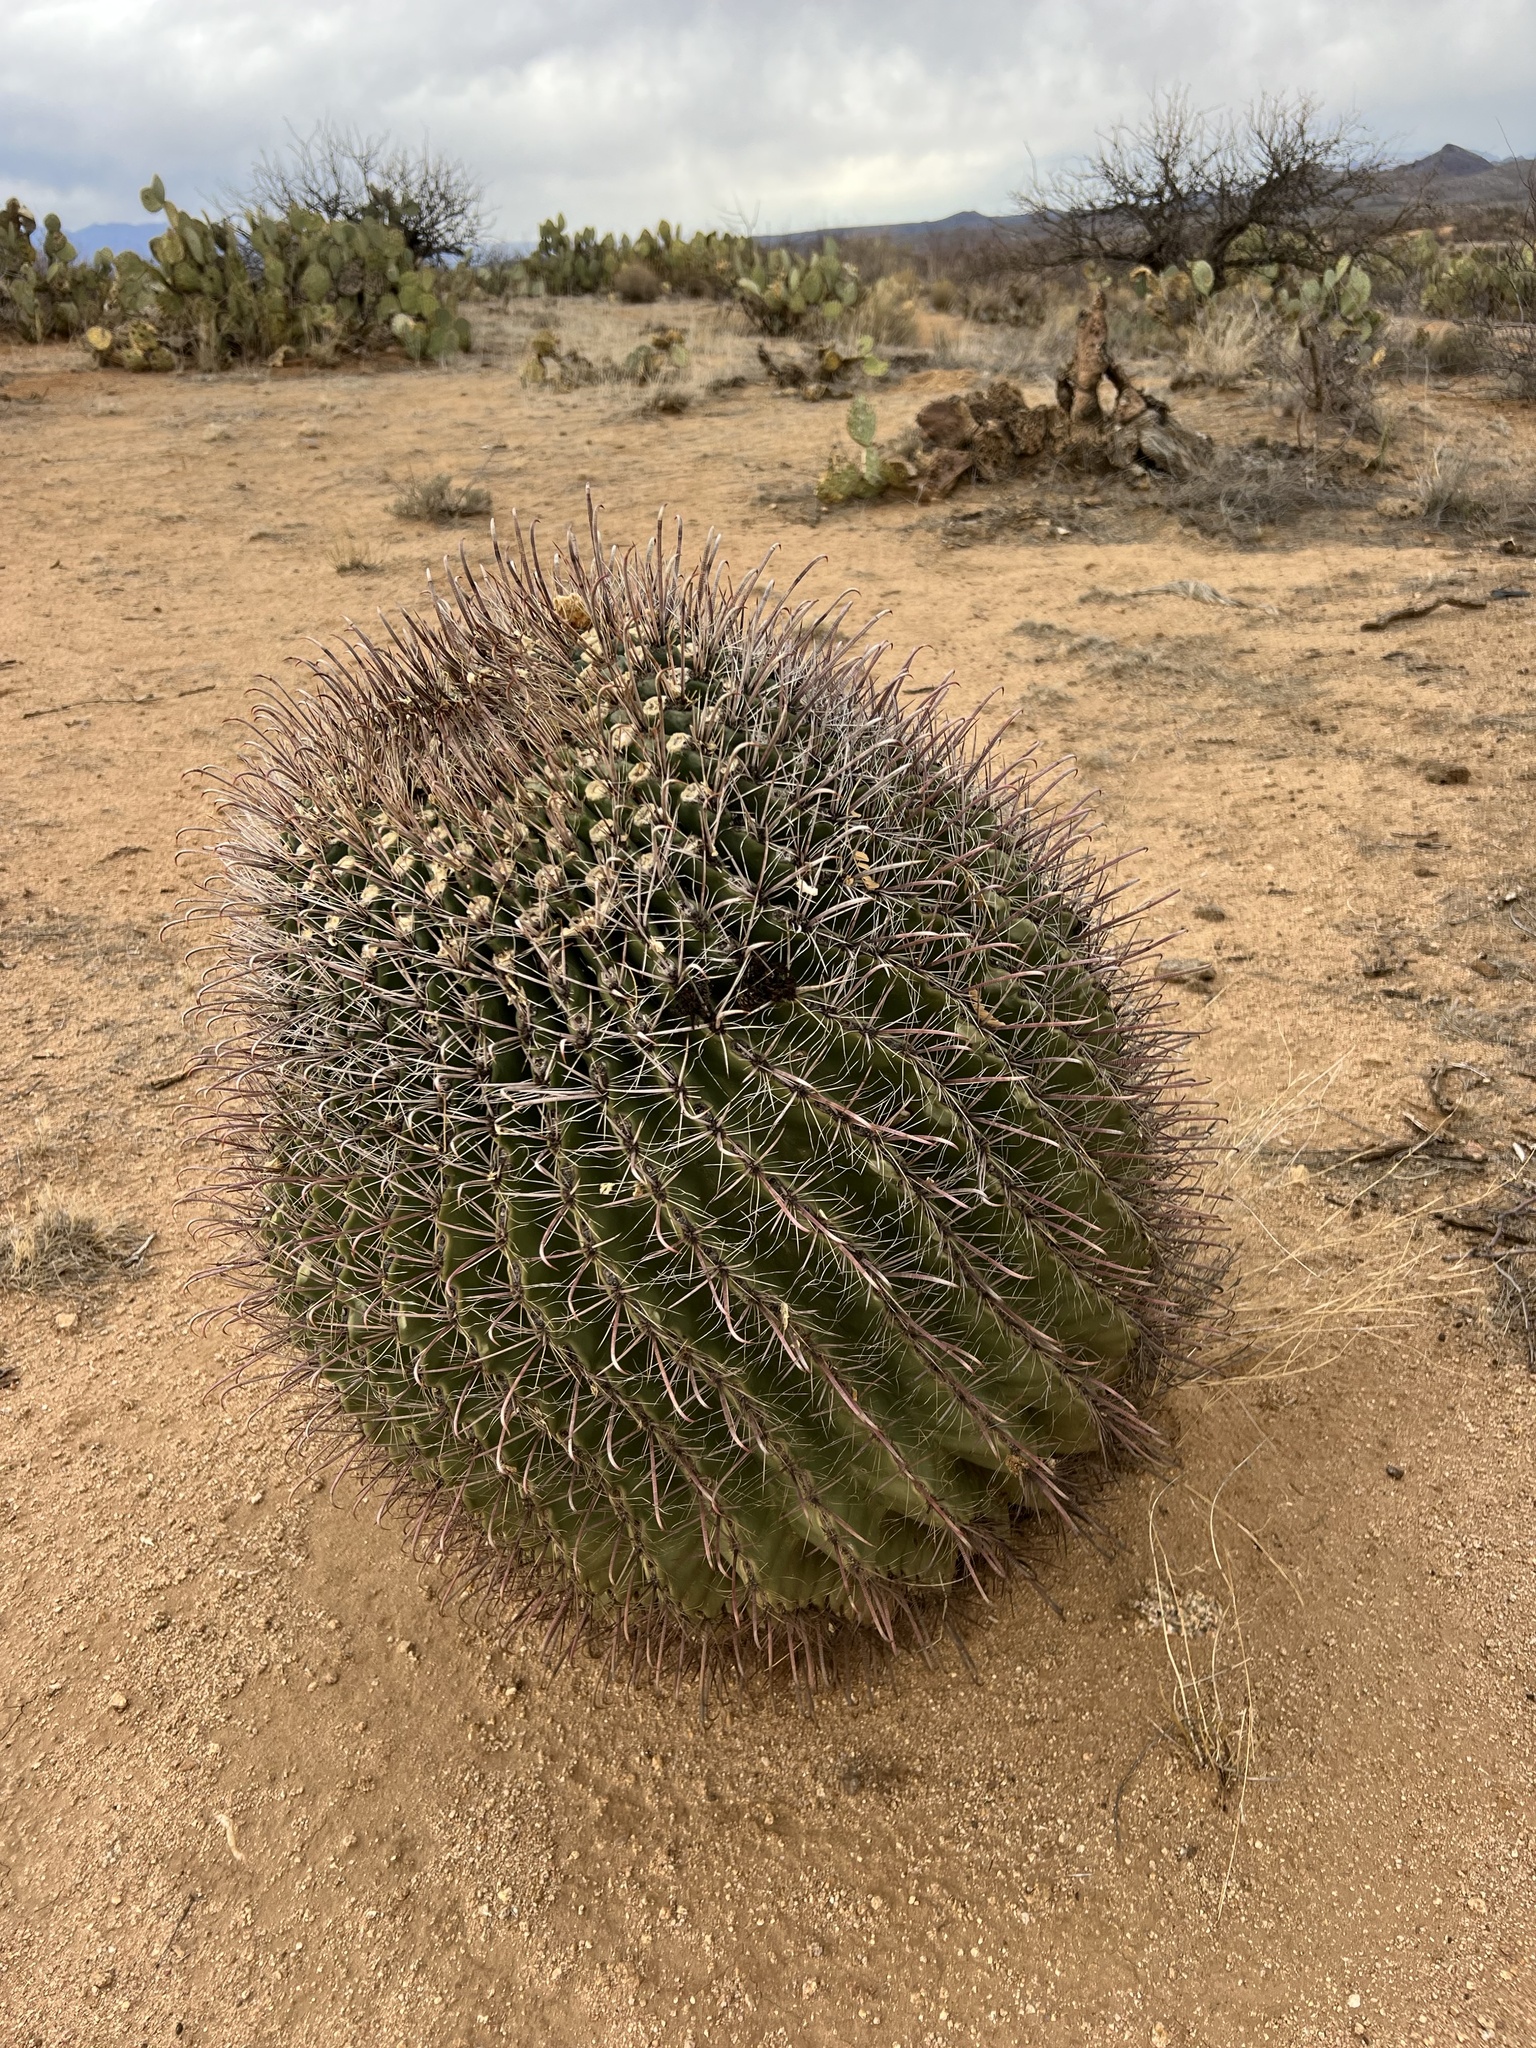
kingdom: Plantae
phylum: Tracheophyta
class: Magnoliopsida
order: Caryophyllales
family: Cactaceae
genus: Ferocactus
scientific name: Ferocactus wislizeni
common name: Candy barrel cactus
